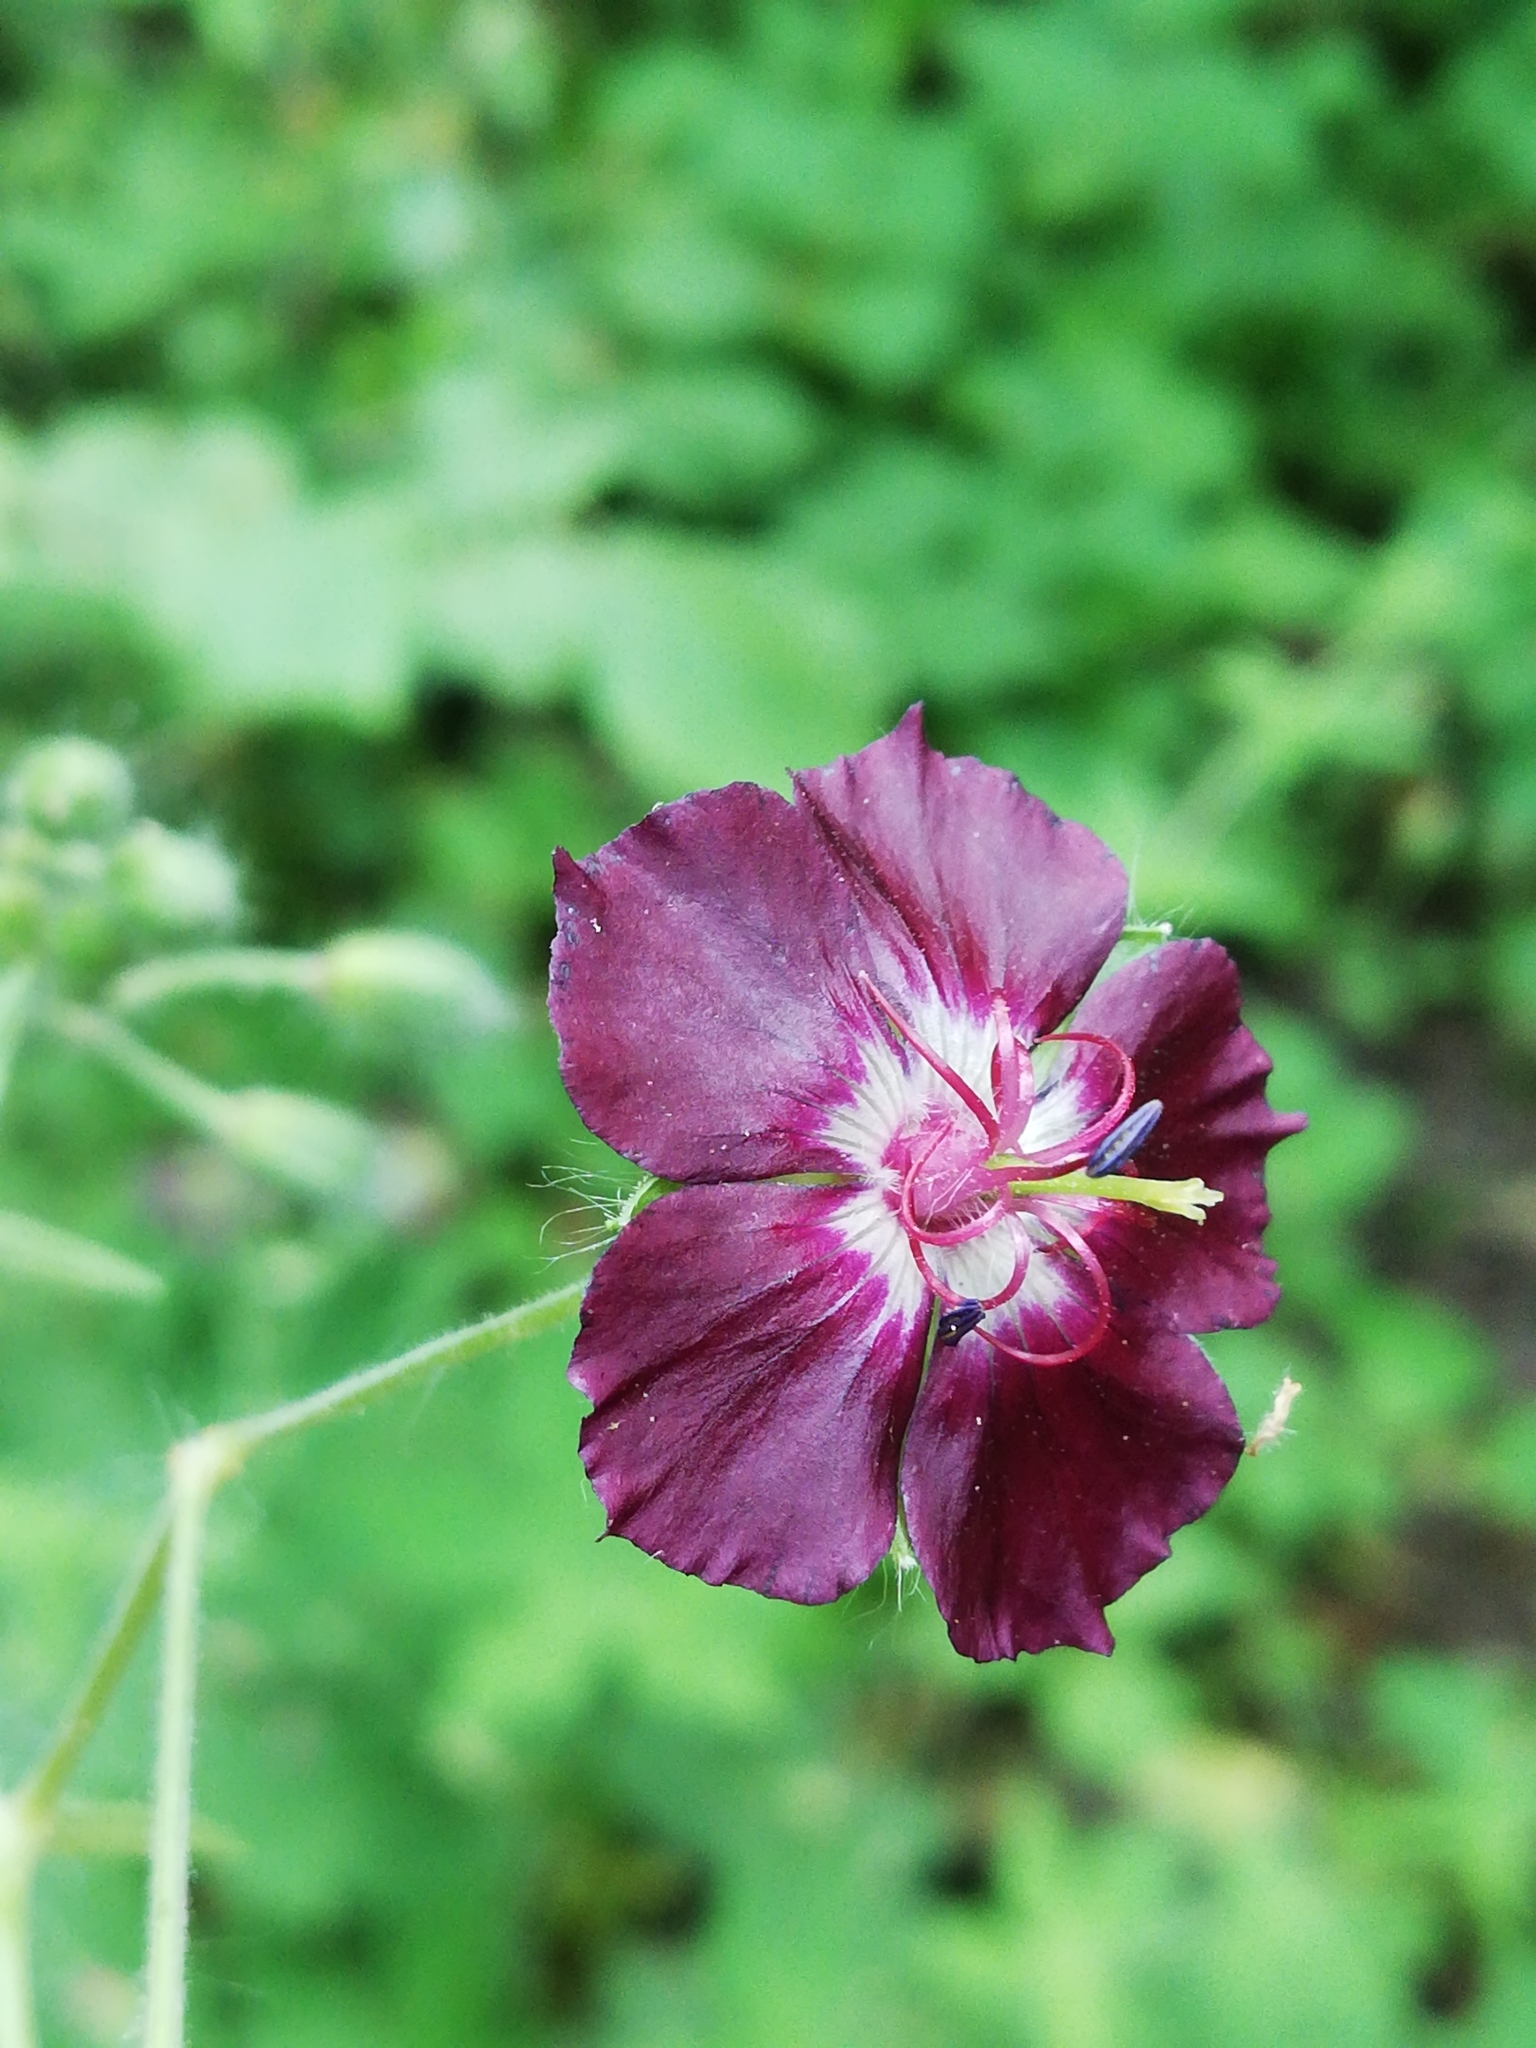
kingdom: Plantae
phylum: Tracheophyta
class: Magnoliopsida
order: Geraniales
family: Geraniaceae
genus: Geranium
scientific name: Geranium phaeum
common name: Dusky crane's-bill
